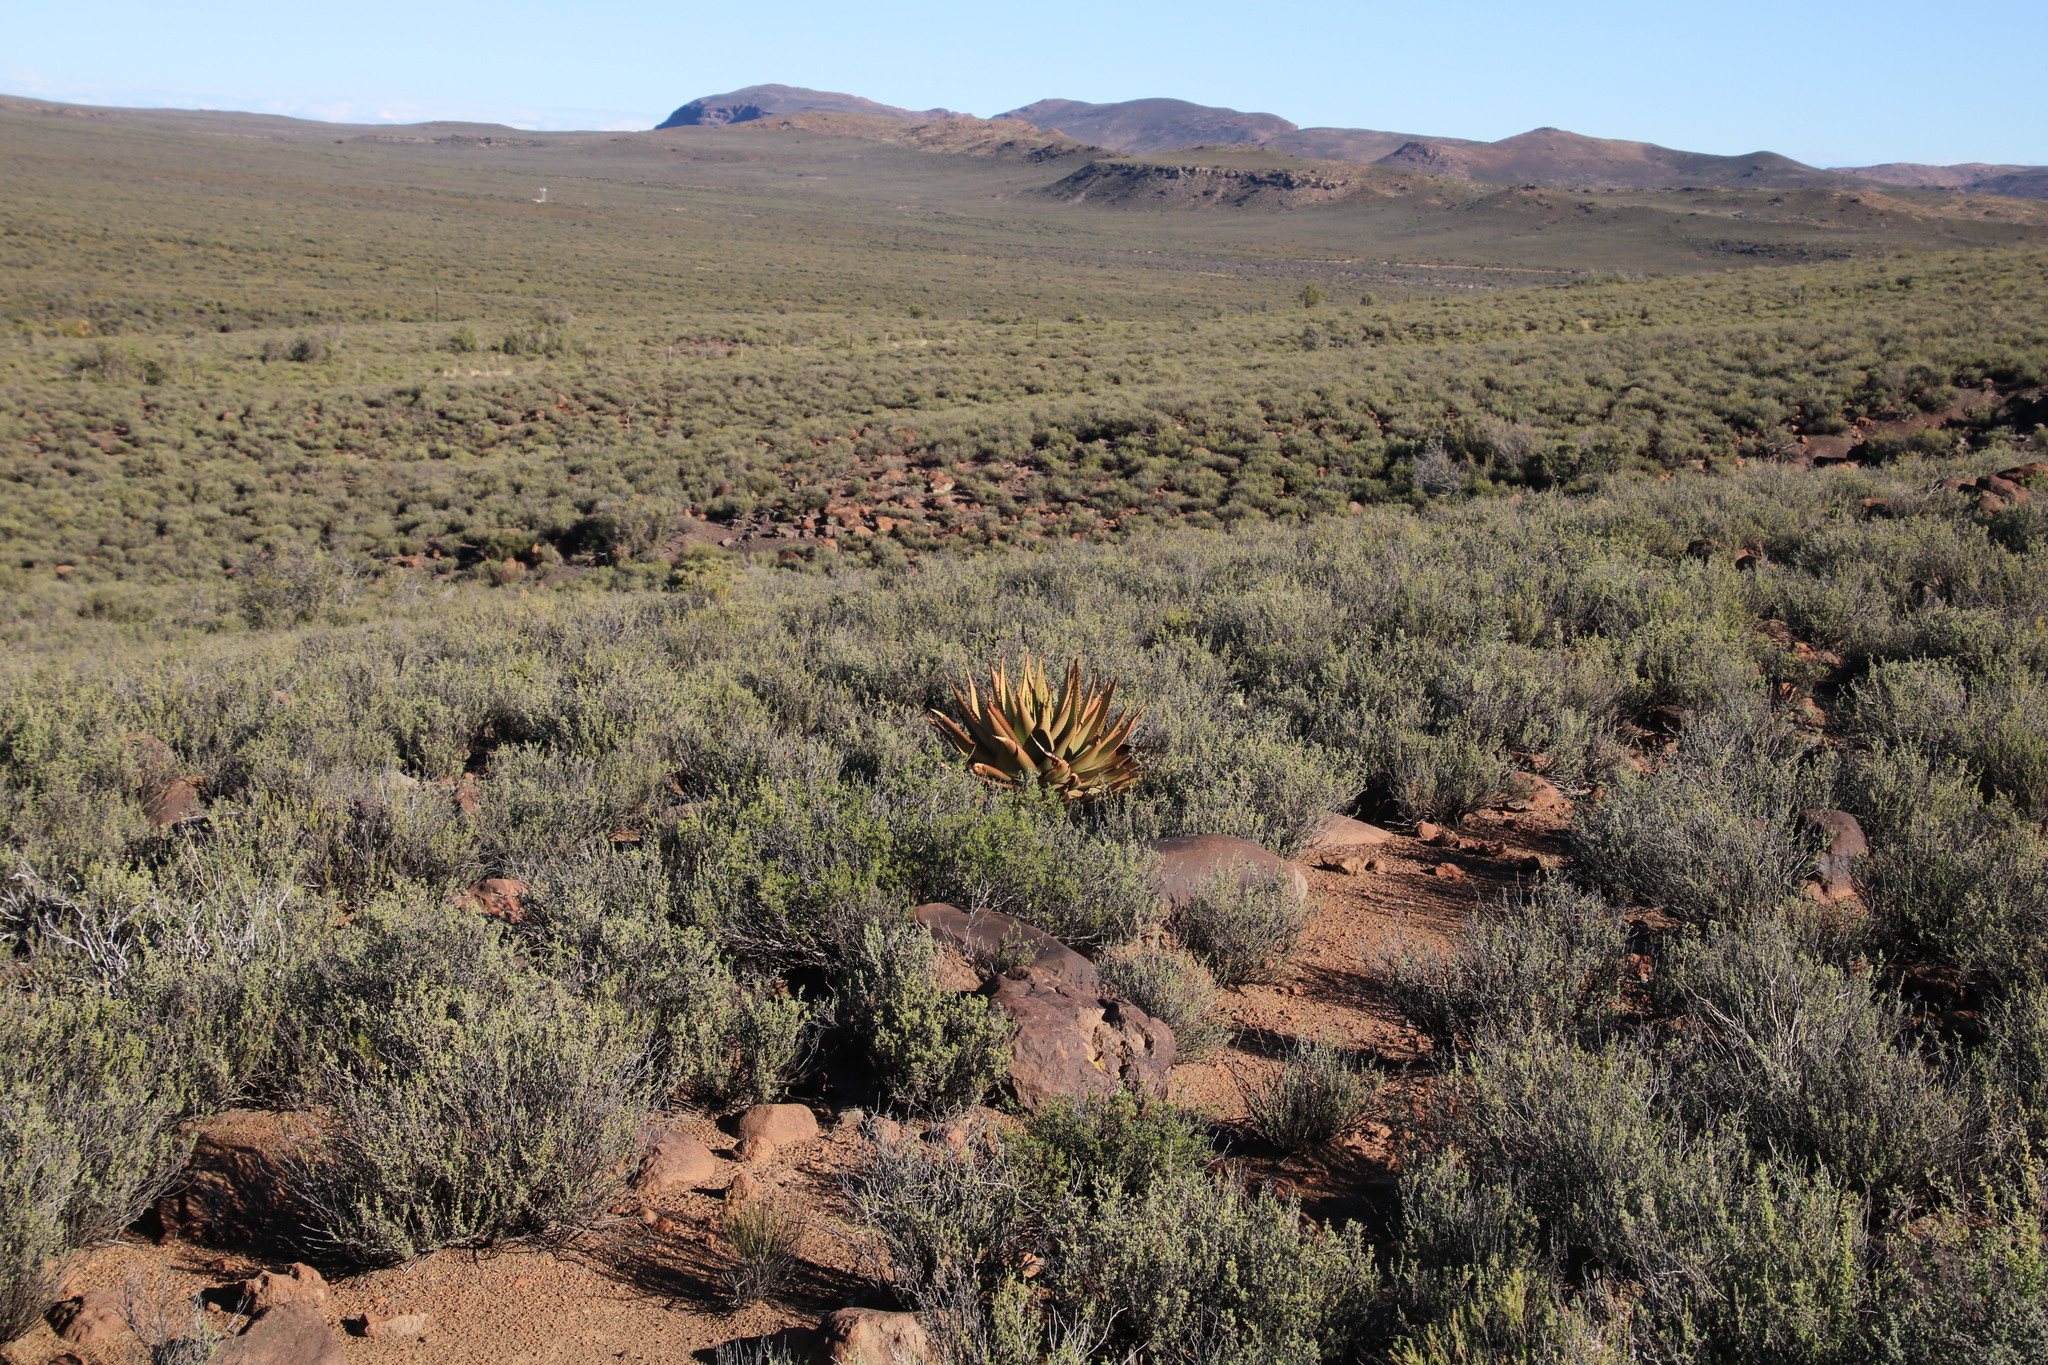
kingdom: Plantae
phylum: Tracheophyta
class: Liliopsida
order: Asparagales
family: Asphodelaceae
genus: Aloe
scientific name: Aloe broomii
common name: Berg alwyn
